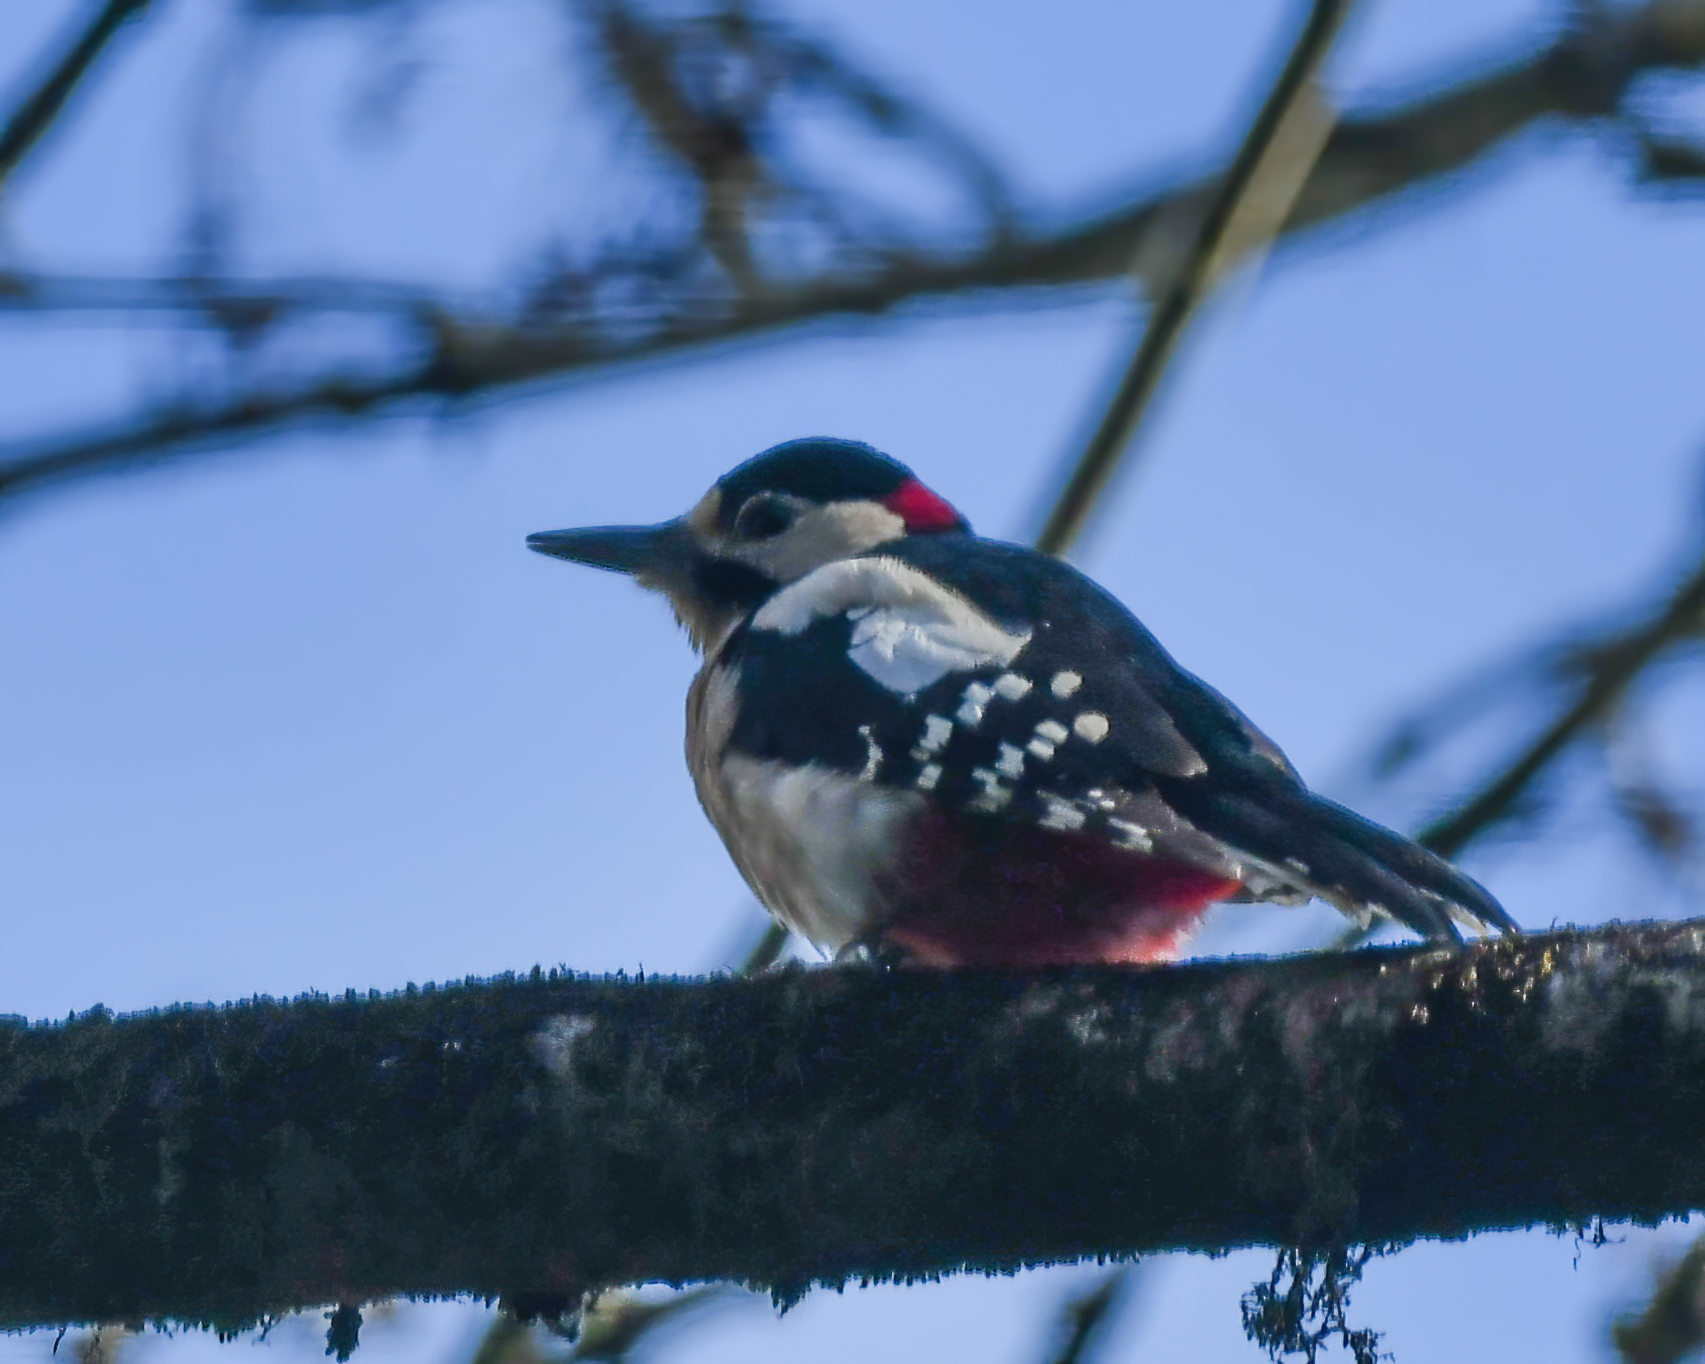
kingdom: Animalia
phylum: Chordata
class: Aves
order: Piciformes
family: Picidae
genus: Dendrocopos
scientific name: Dendrocopos major
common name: Great spotted woodpecker
